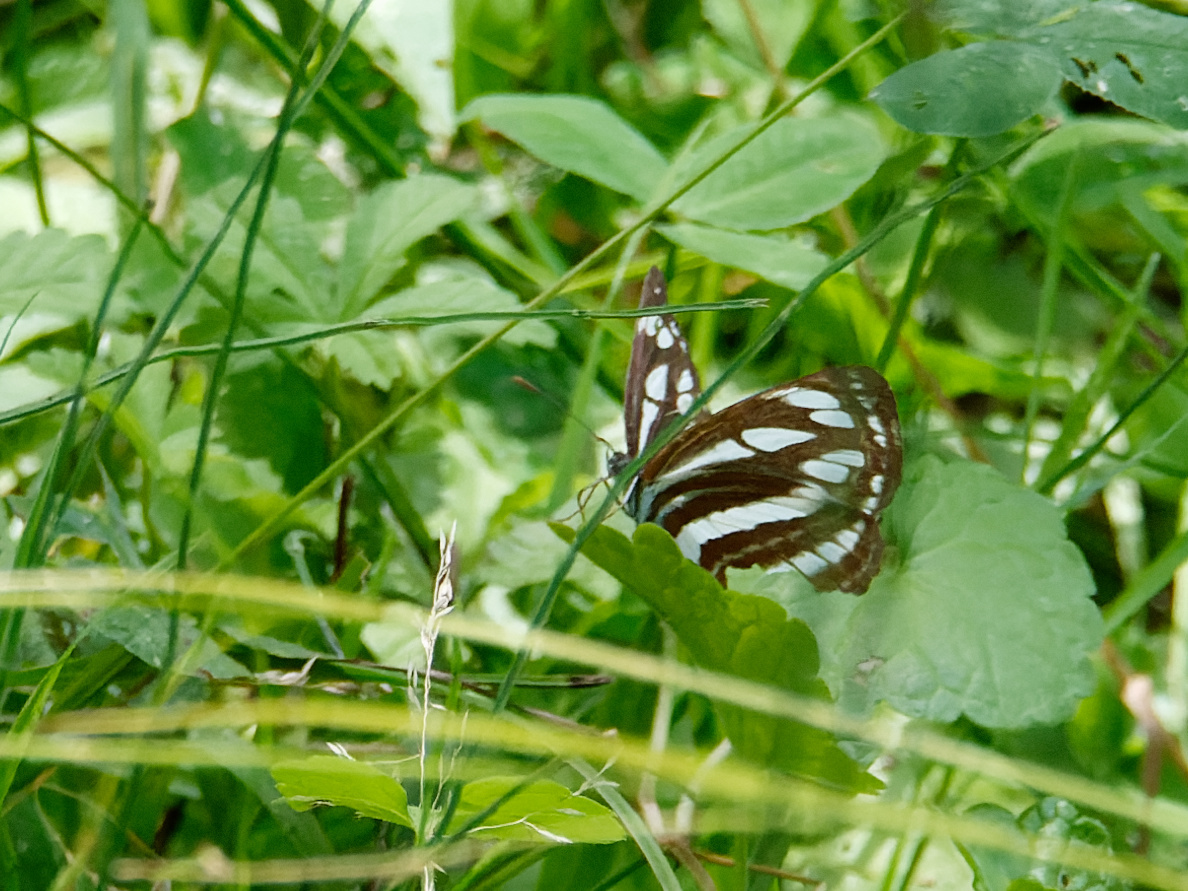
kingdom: Animalia
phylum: Arthropoda
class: Insecta
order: Lepidoptera
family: Nymphalidae
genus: Neptis
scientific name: Neptis sappho
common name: Common glider
